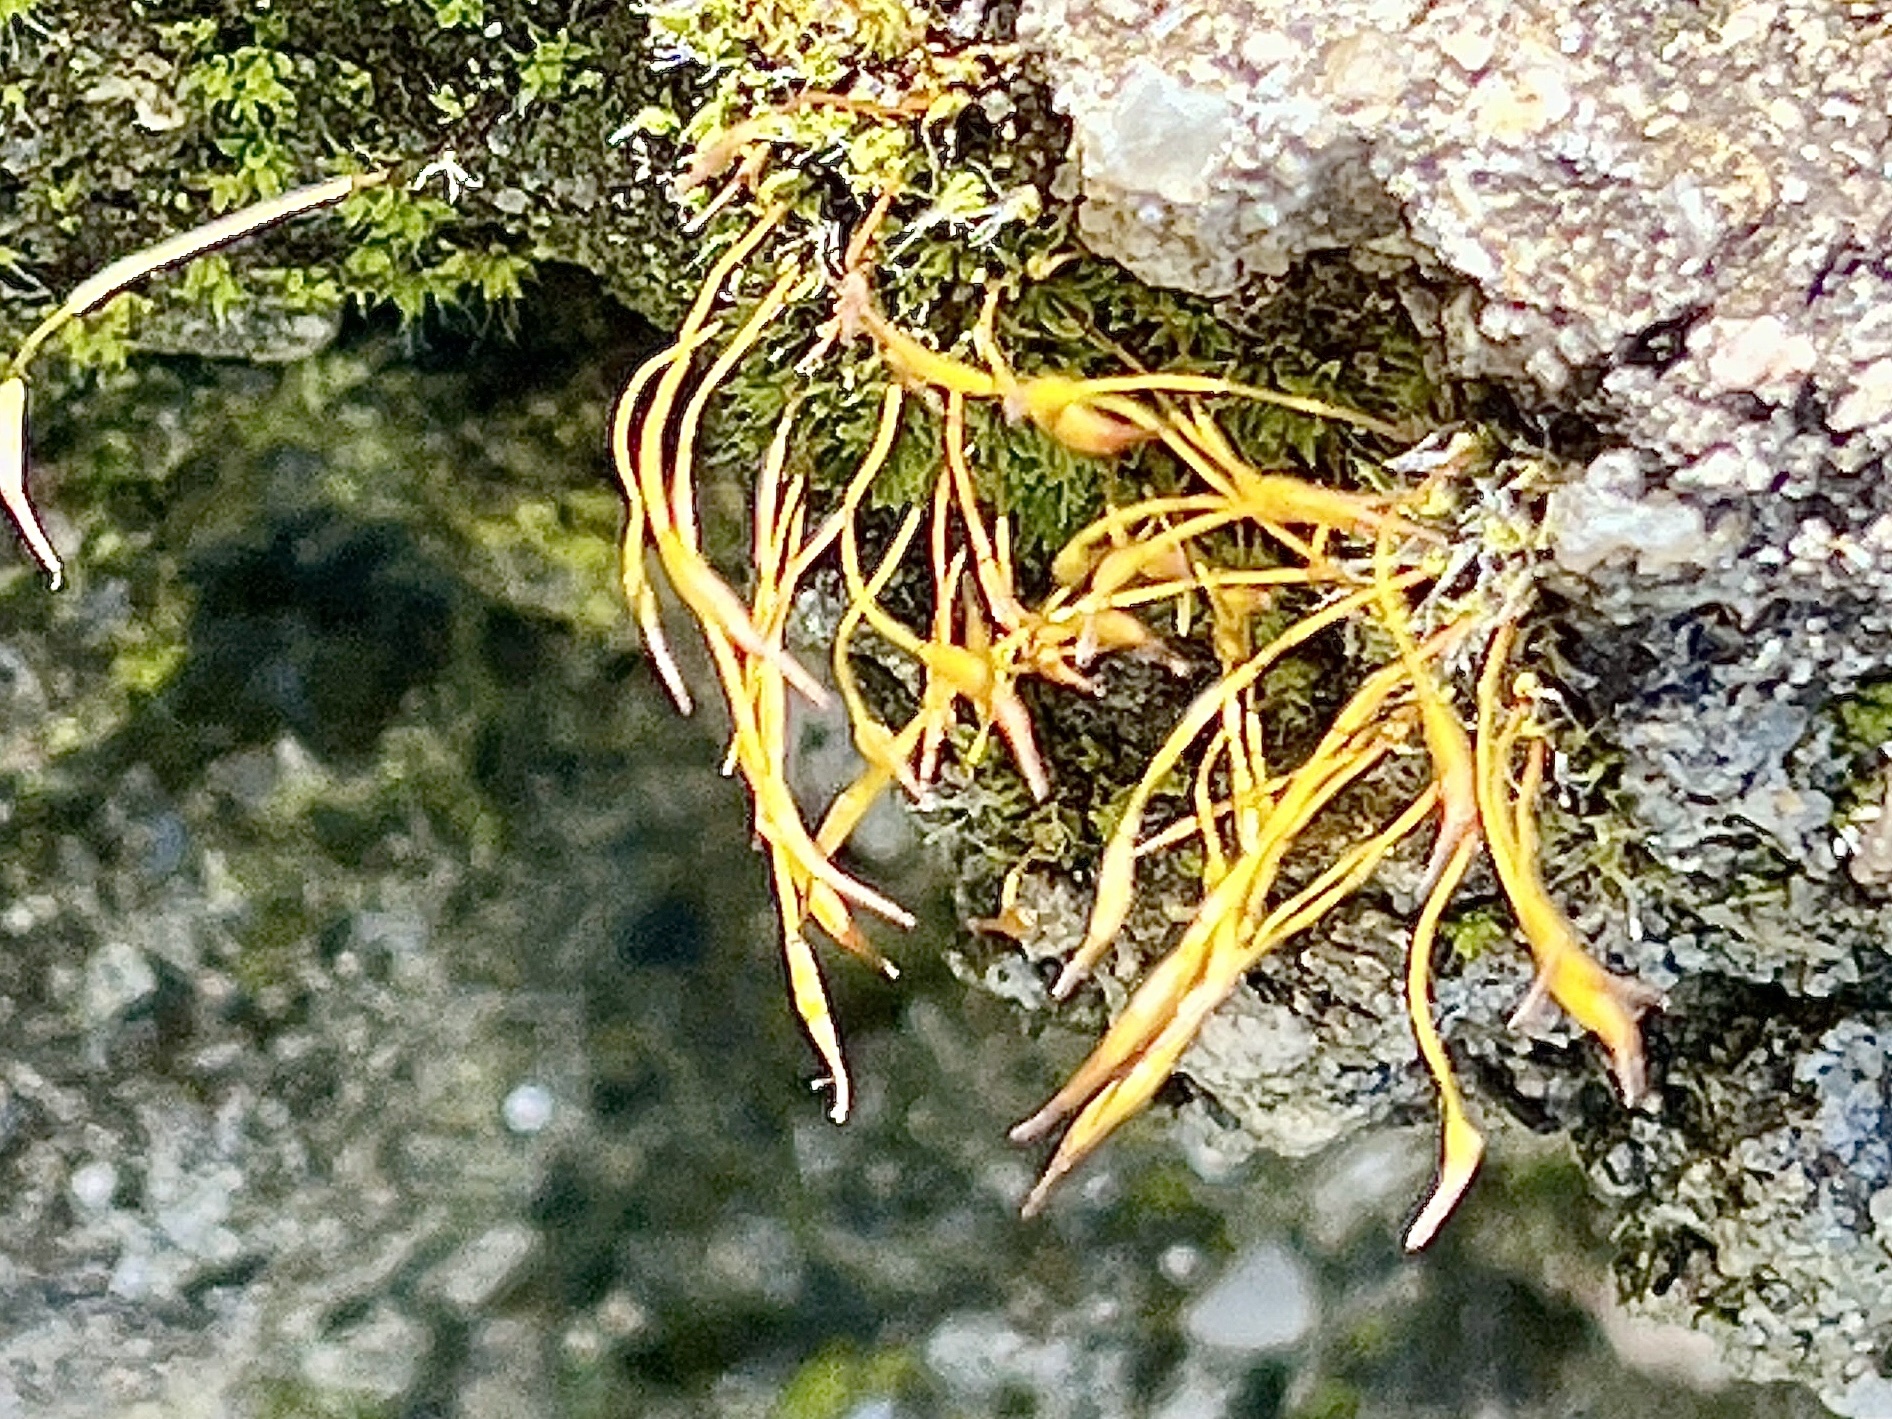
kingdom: Plantae
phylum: Bryophyta
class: Bryopsida
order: Pottiales
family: Pottiaceae
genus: Tortula
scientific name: Tortula muralis
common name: Wall screw-moss
